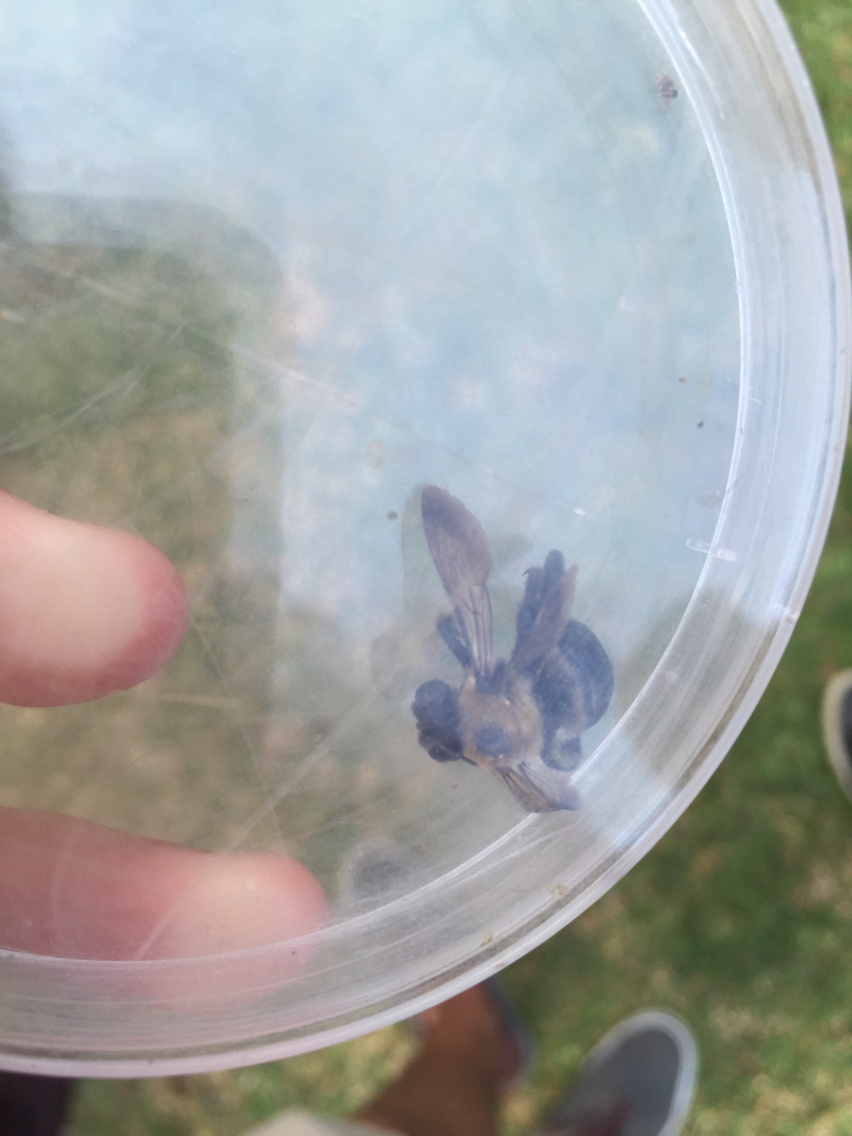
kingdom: Animalia
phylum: Arthropoda
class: Insecta
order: Hymenoptera
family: Apidae
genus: Xylocopa
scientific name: Xylocopa virginica
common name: Carpenter bee
